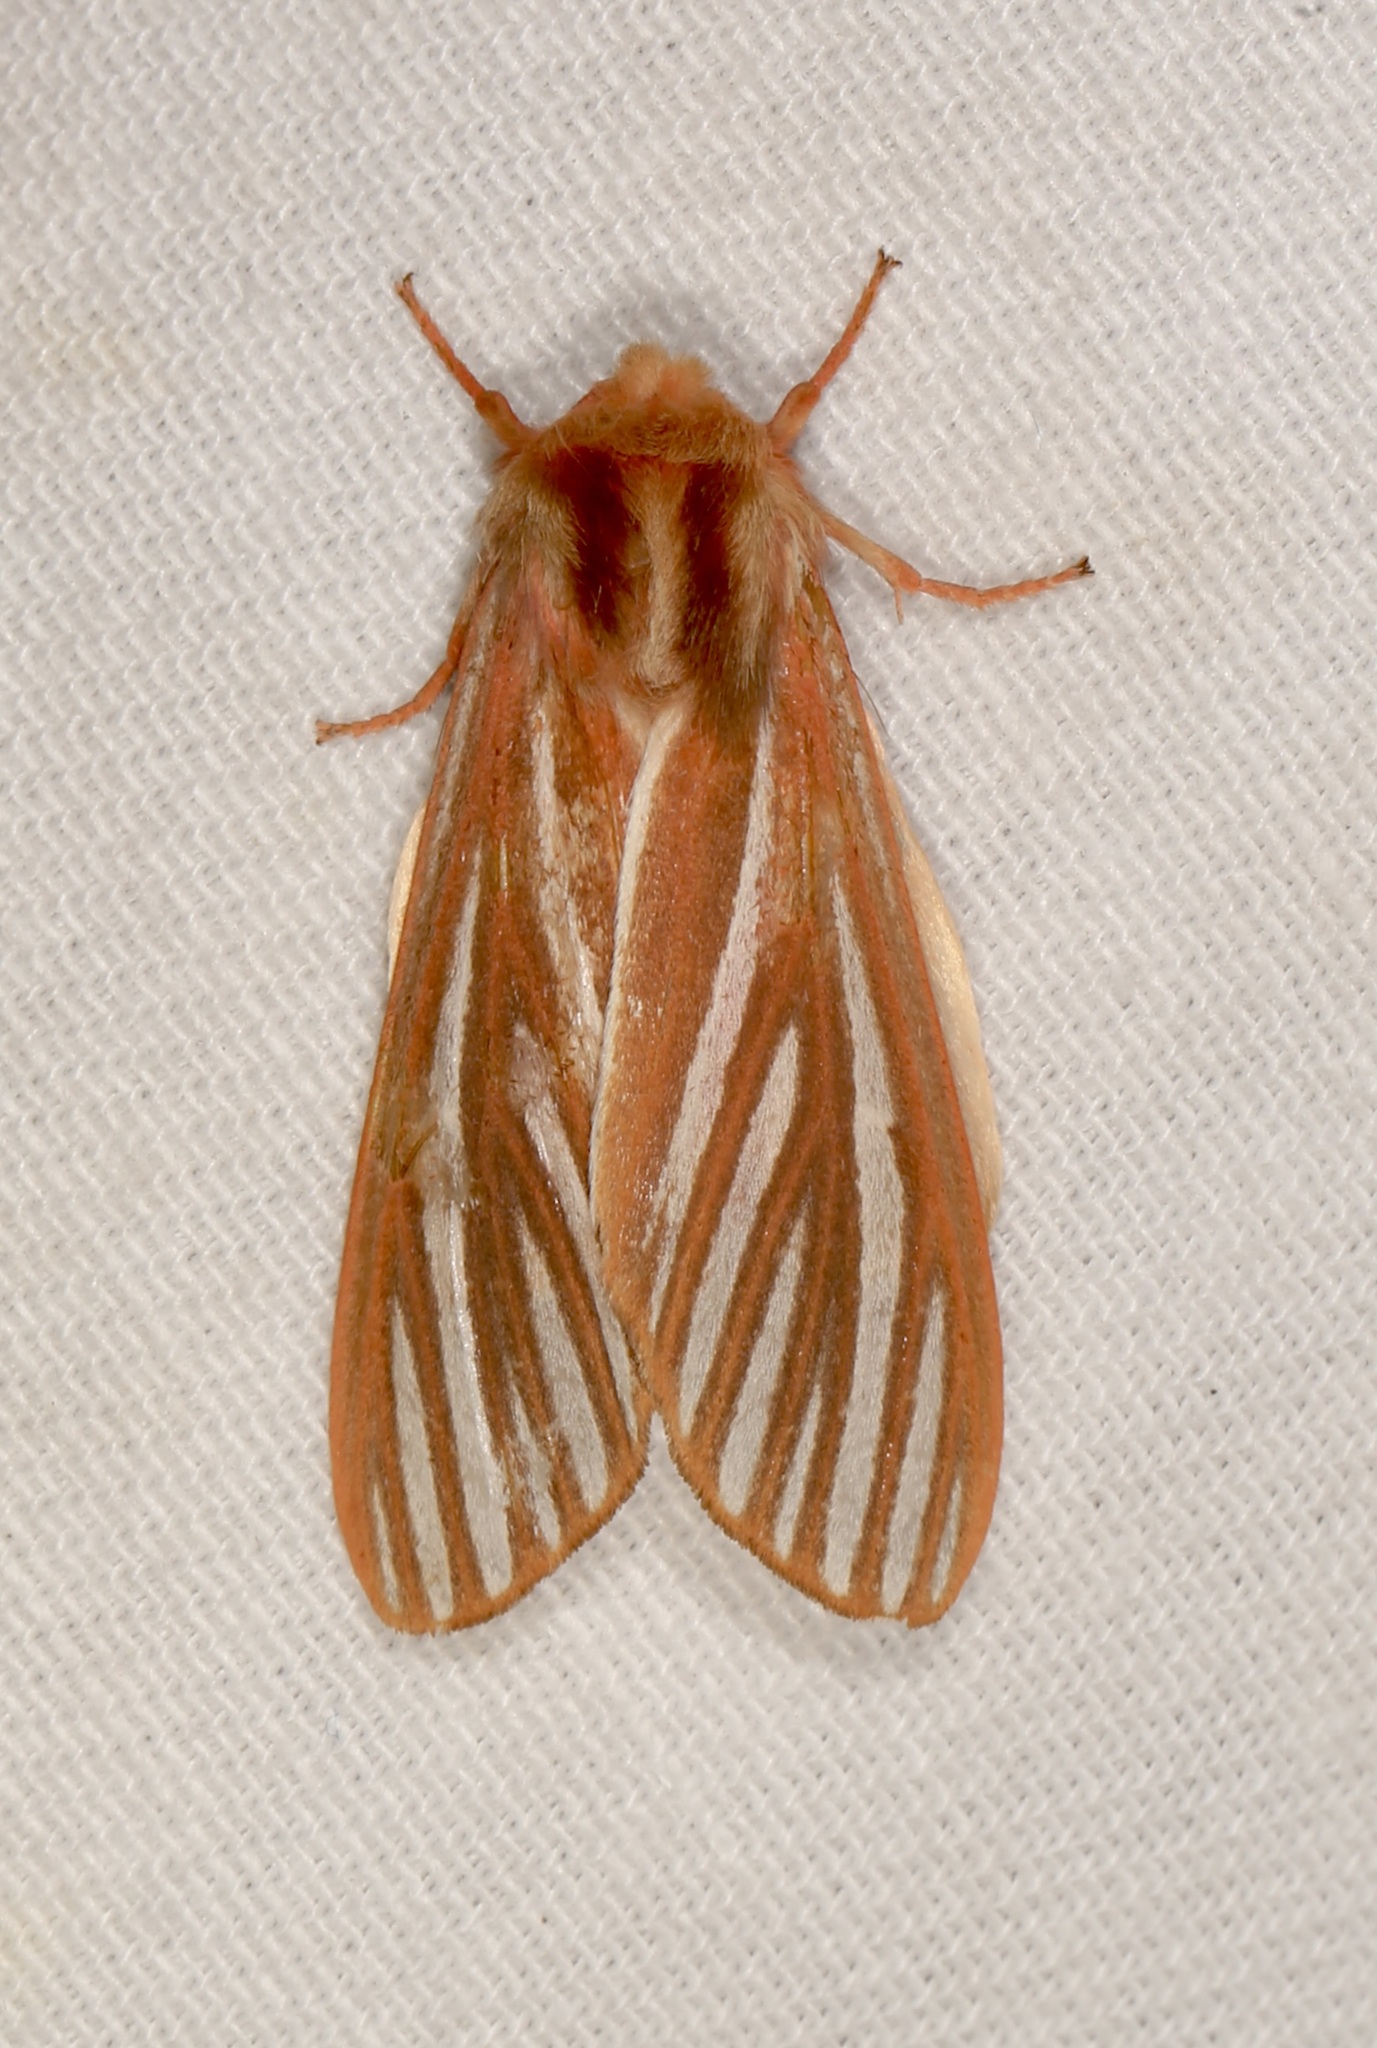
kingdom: Animalia
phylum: Arthropoda
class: Insecta
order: Lepidoptera
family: Erebidae
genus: Hemihyalea
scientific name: Hemihyalea ambigua
